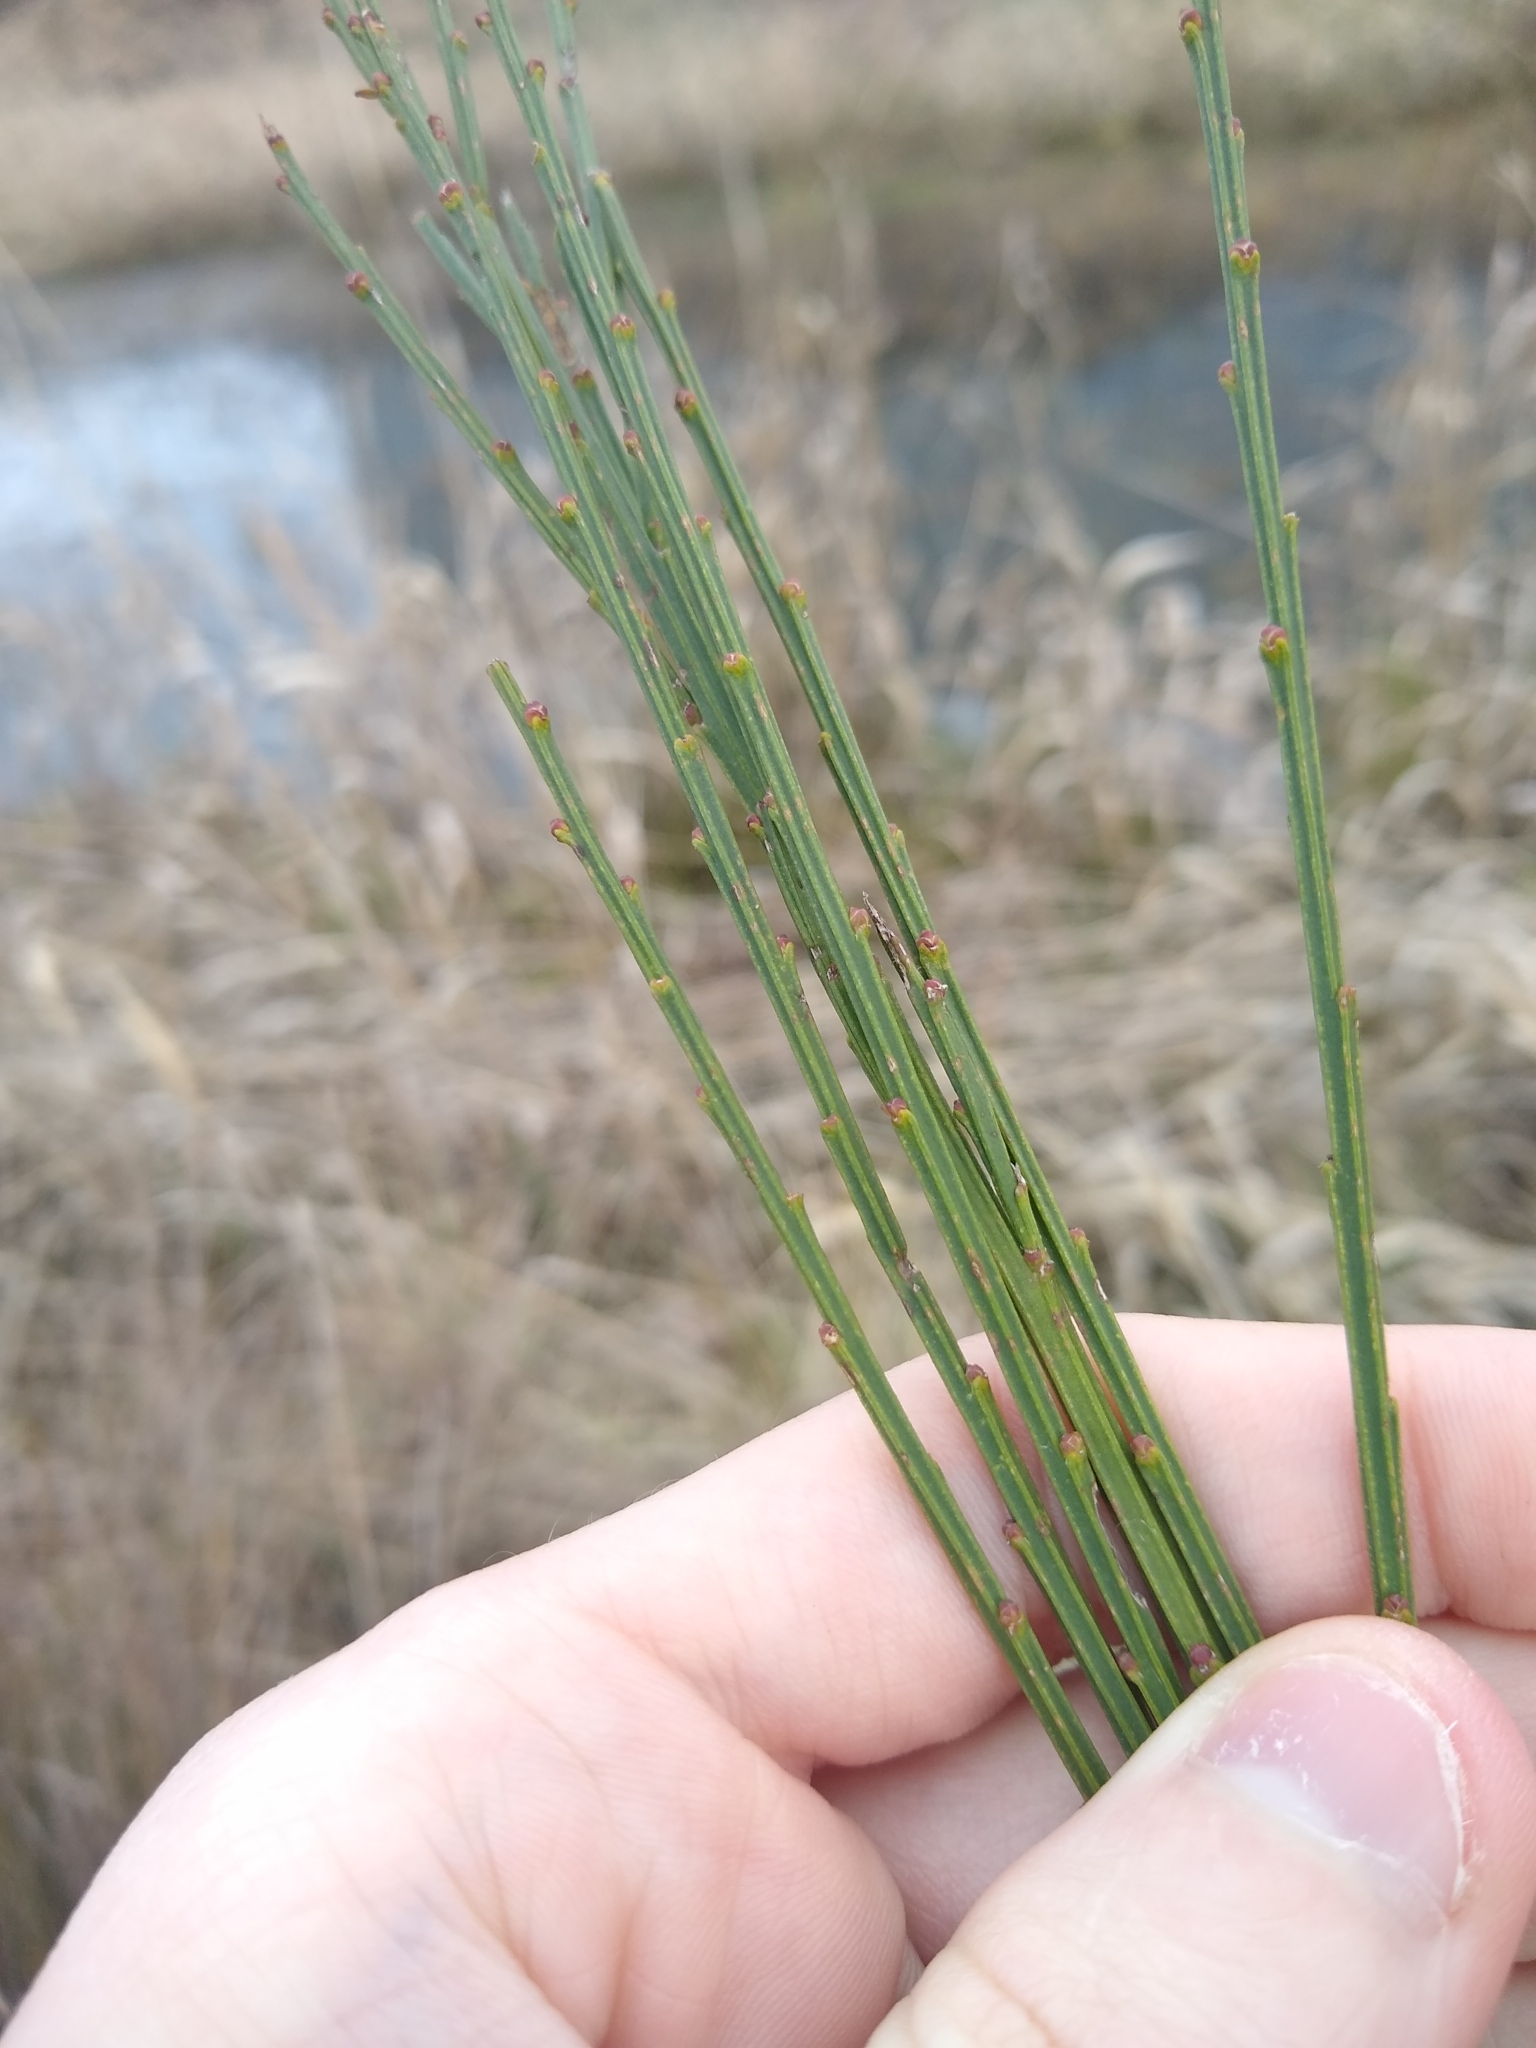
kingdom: Plantae
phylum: Tracheophyta
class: Magnoliopsida
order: Fabales
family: Fabaceae
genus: Cytisus
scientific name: Cytisus scoparius
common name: Scotch broom
